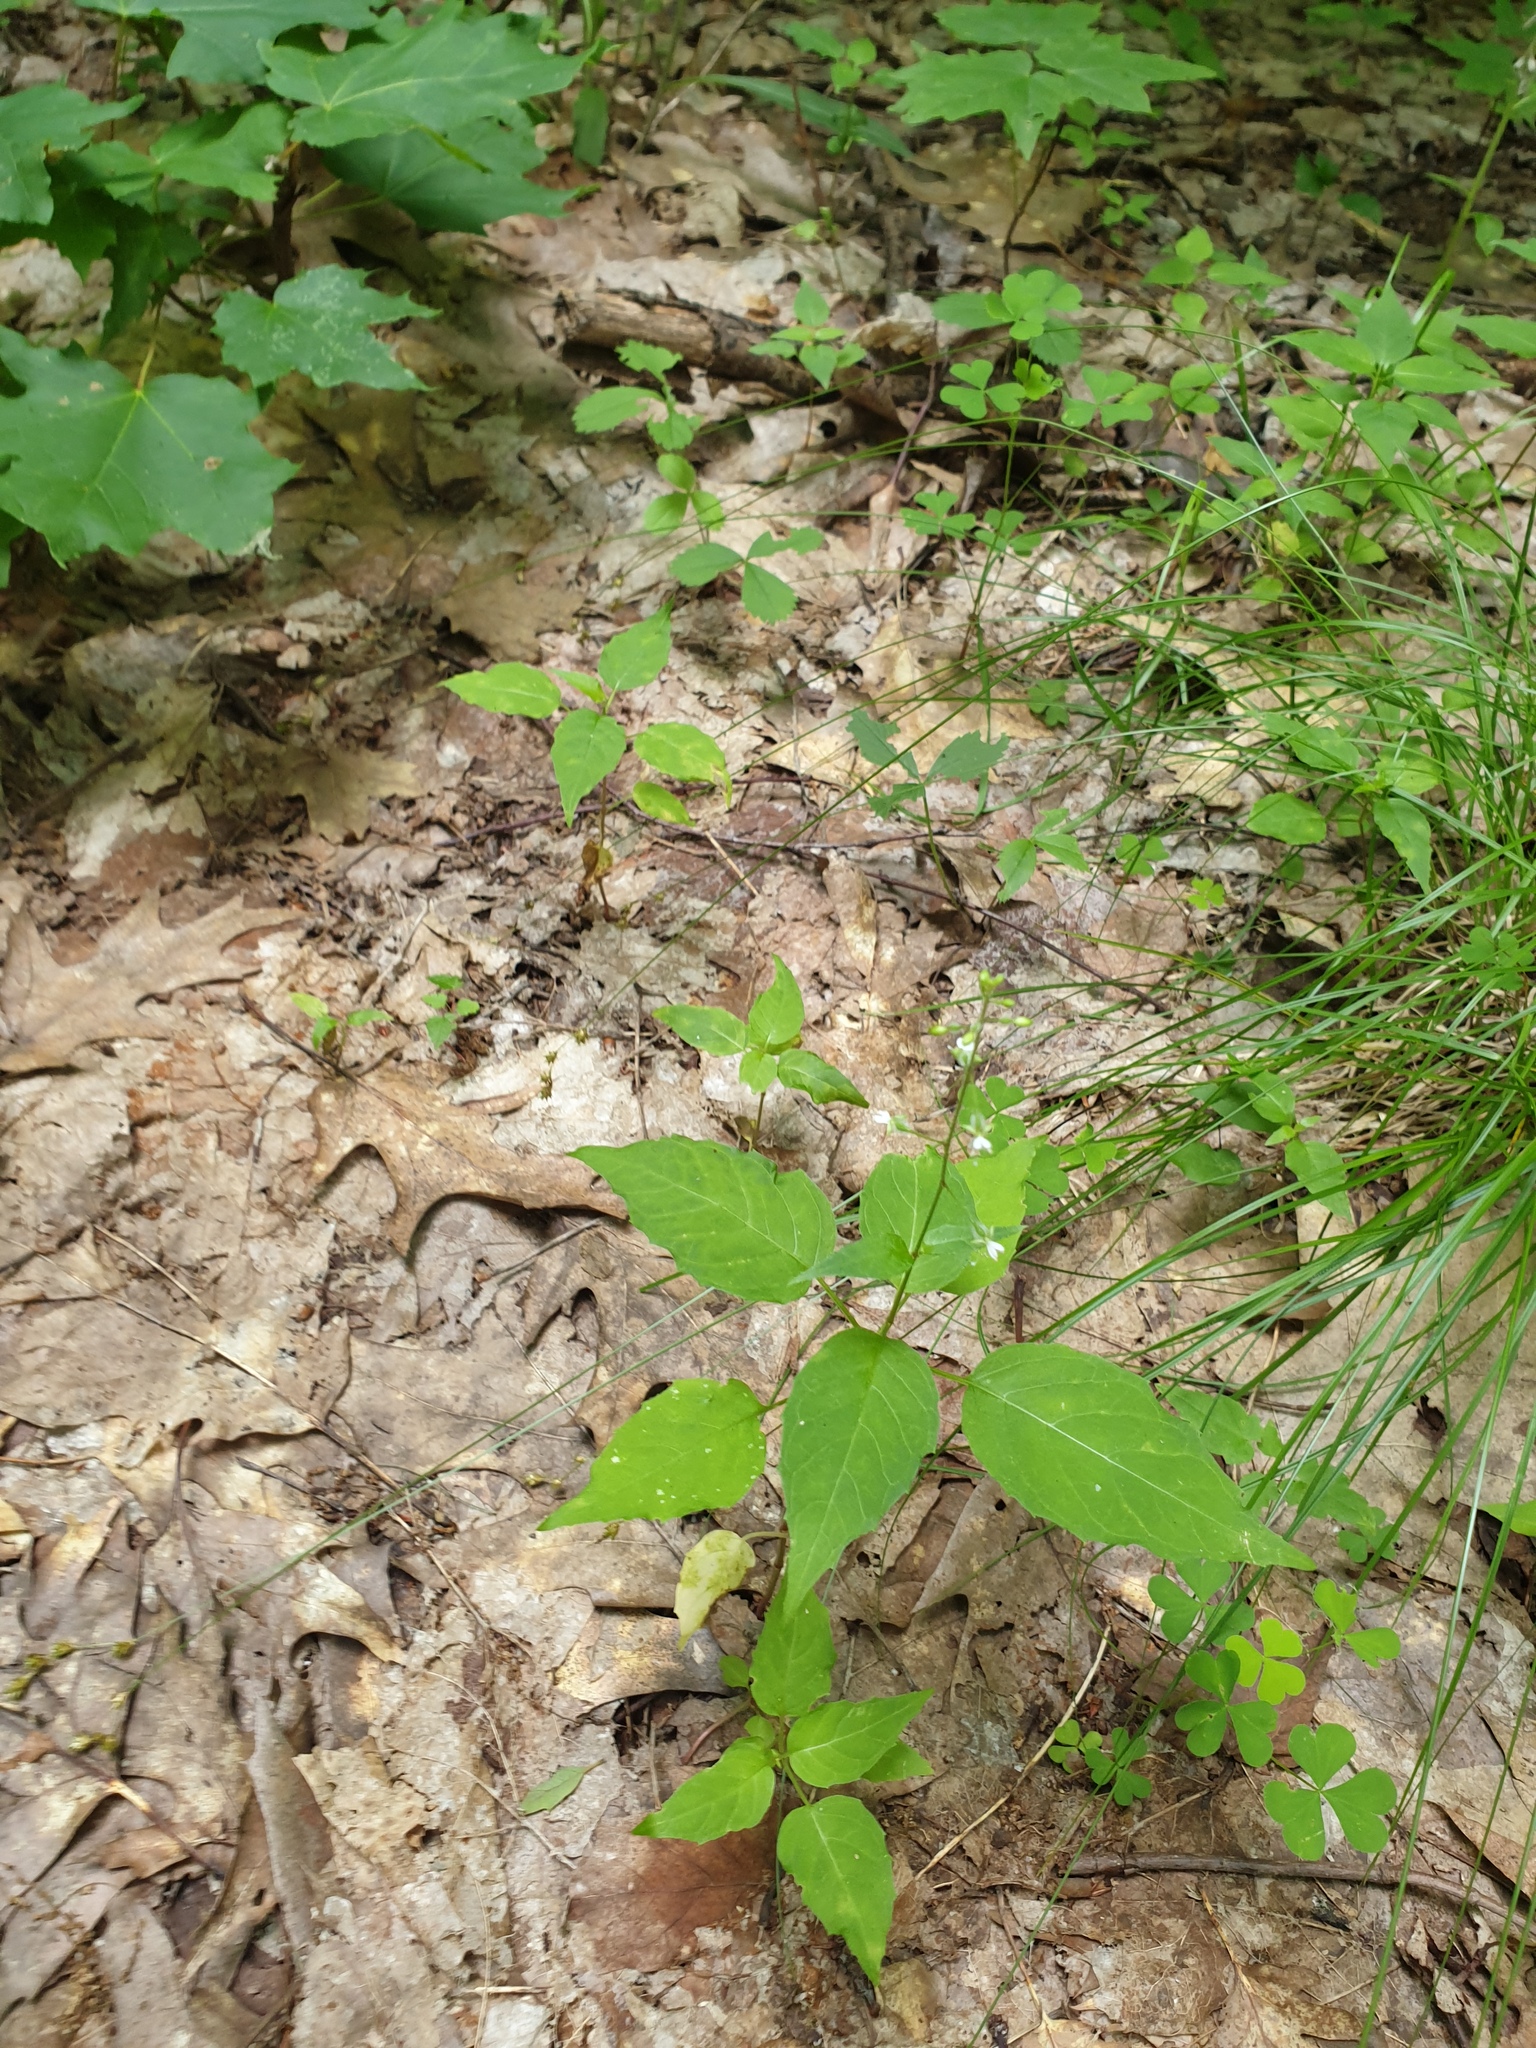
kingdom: Plantae
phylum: Tracheophyta
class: Magnoliopsida
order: Myrtales
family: Onagraceae
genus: Circaea
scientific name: Circaea canadensis
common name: Broad-leaved enchanter's nightshade
